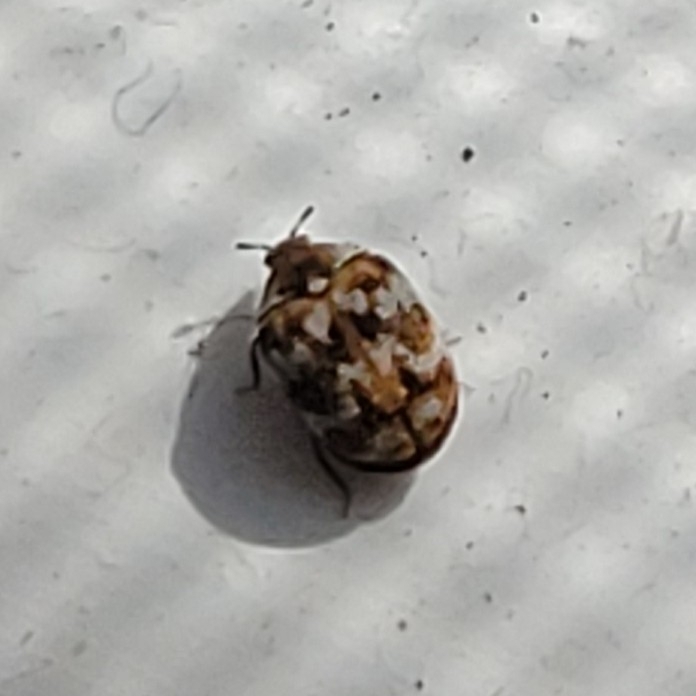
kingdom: Animalia
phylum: Arthropoda
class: Insecta
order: Coleoptera
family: Dermestidae
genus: Anthrenus
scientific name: Anthrenus verbasci
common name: Varied carpet beetle
